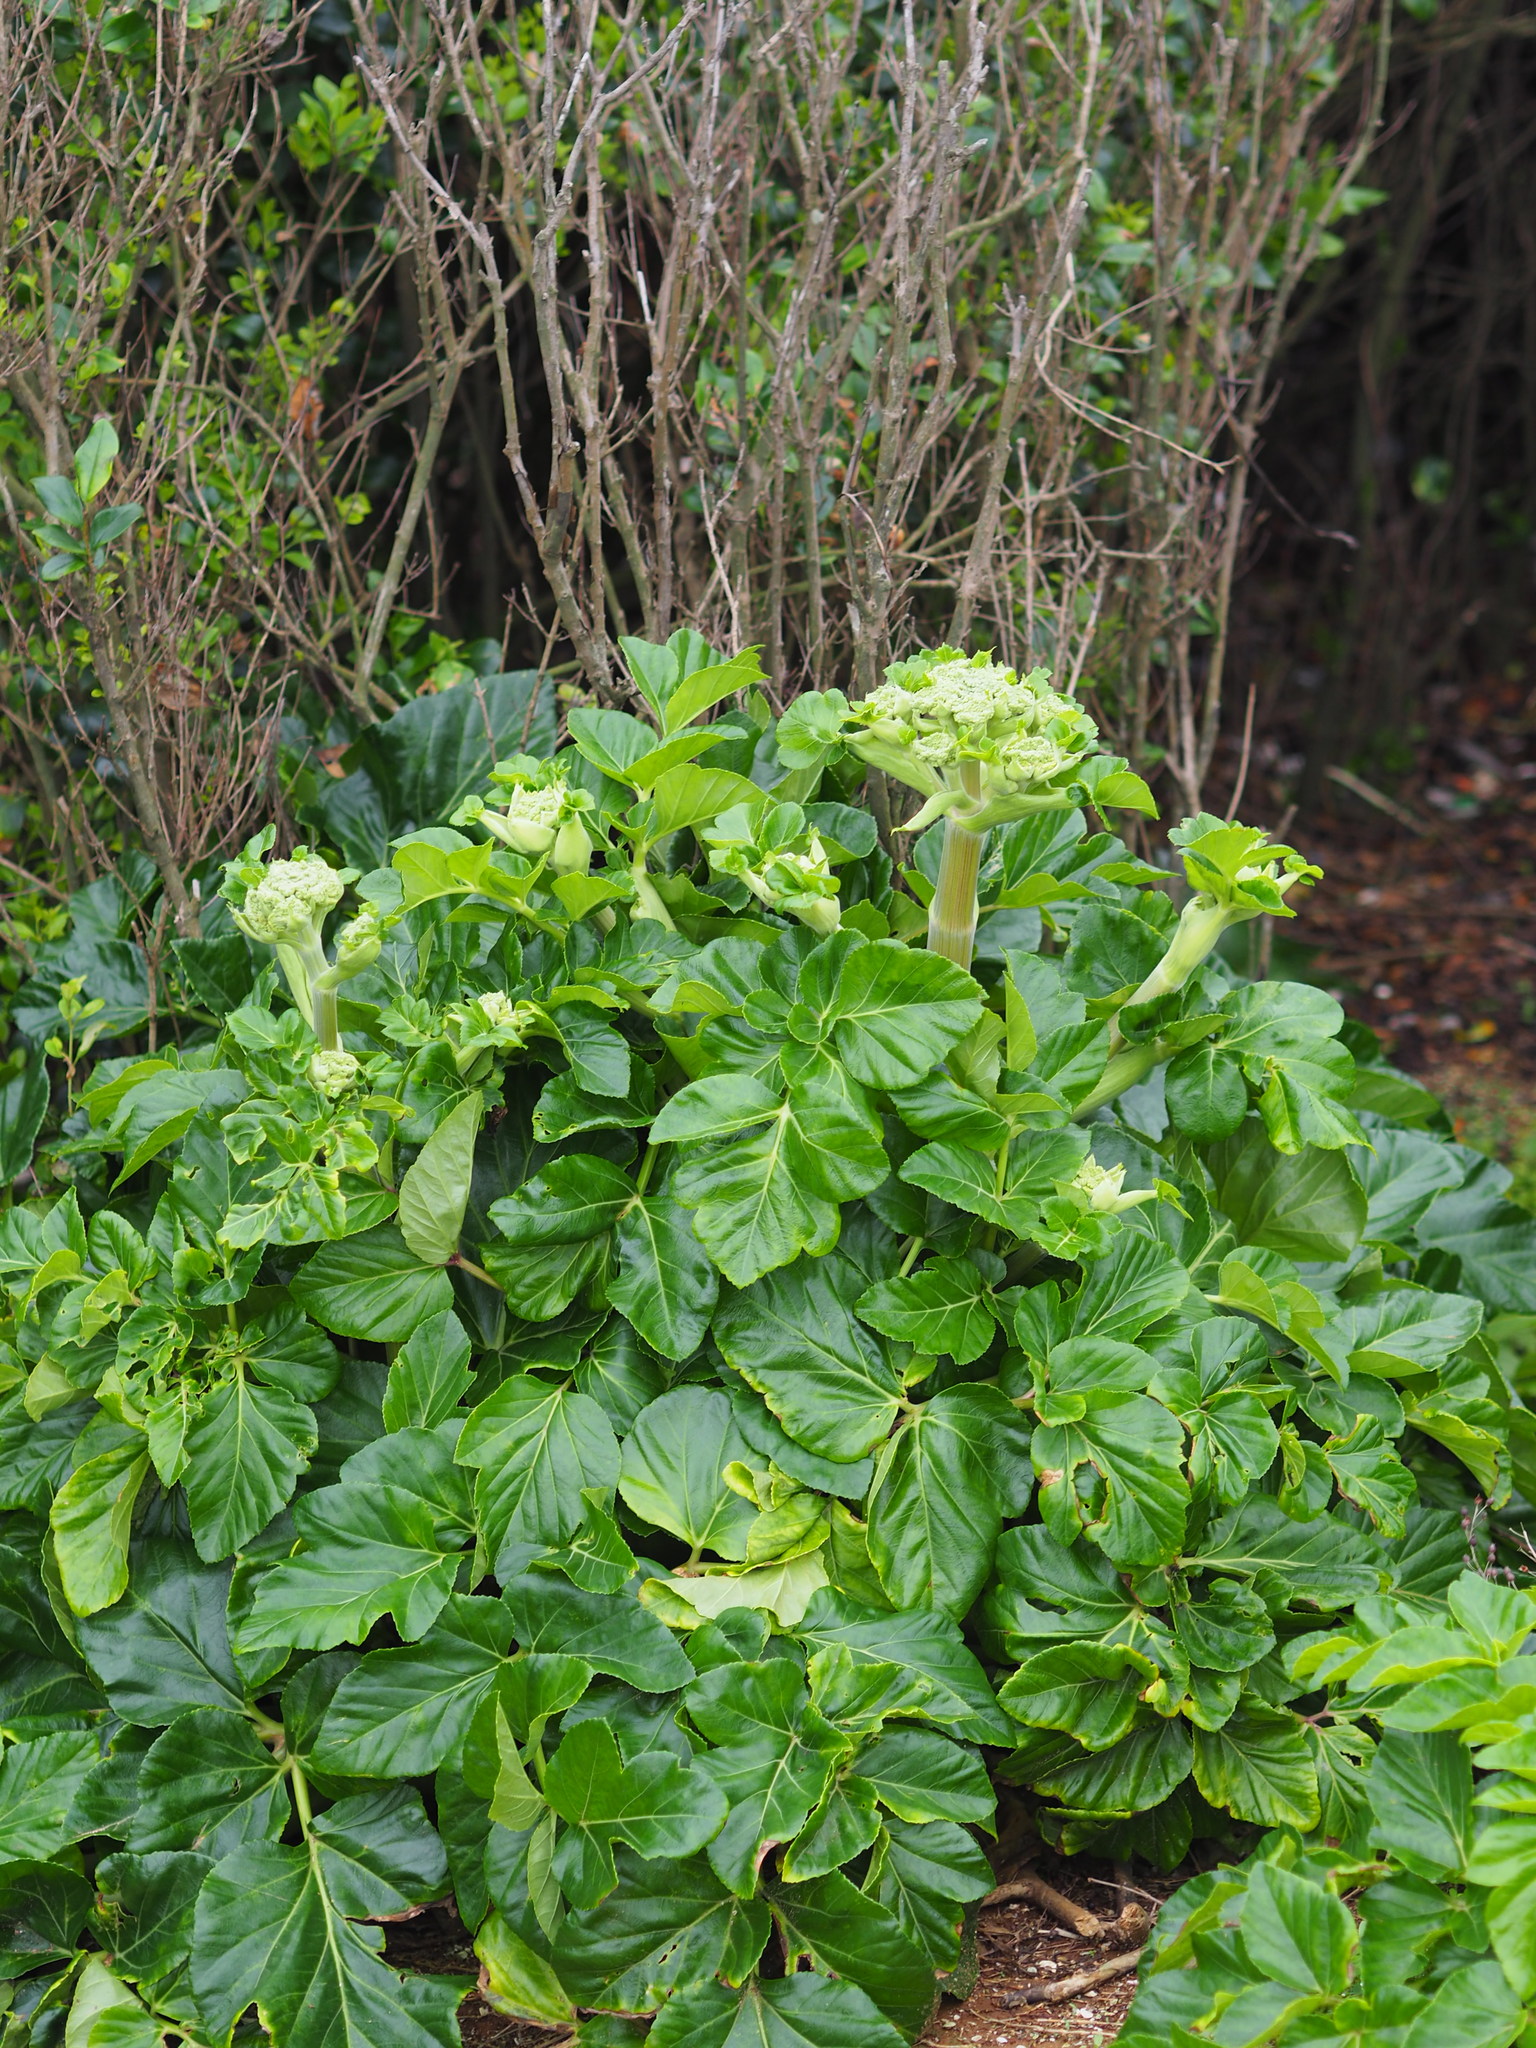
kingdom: Plantae
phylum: Tracheophyta
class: Magnoliopsida
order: Apiales
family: Apiaceae
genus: Angelica
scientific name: Angelica hirsutiflora
